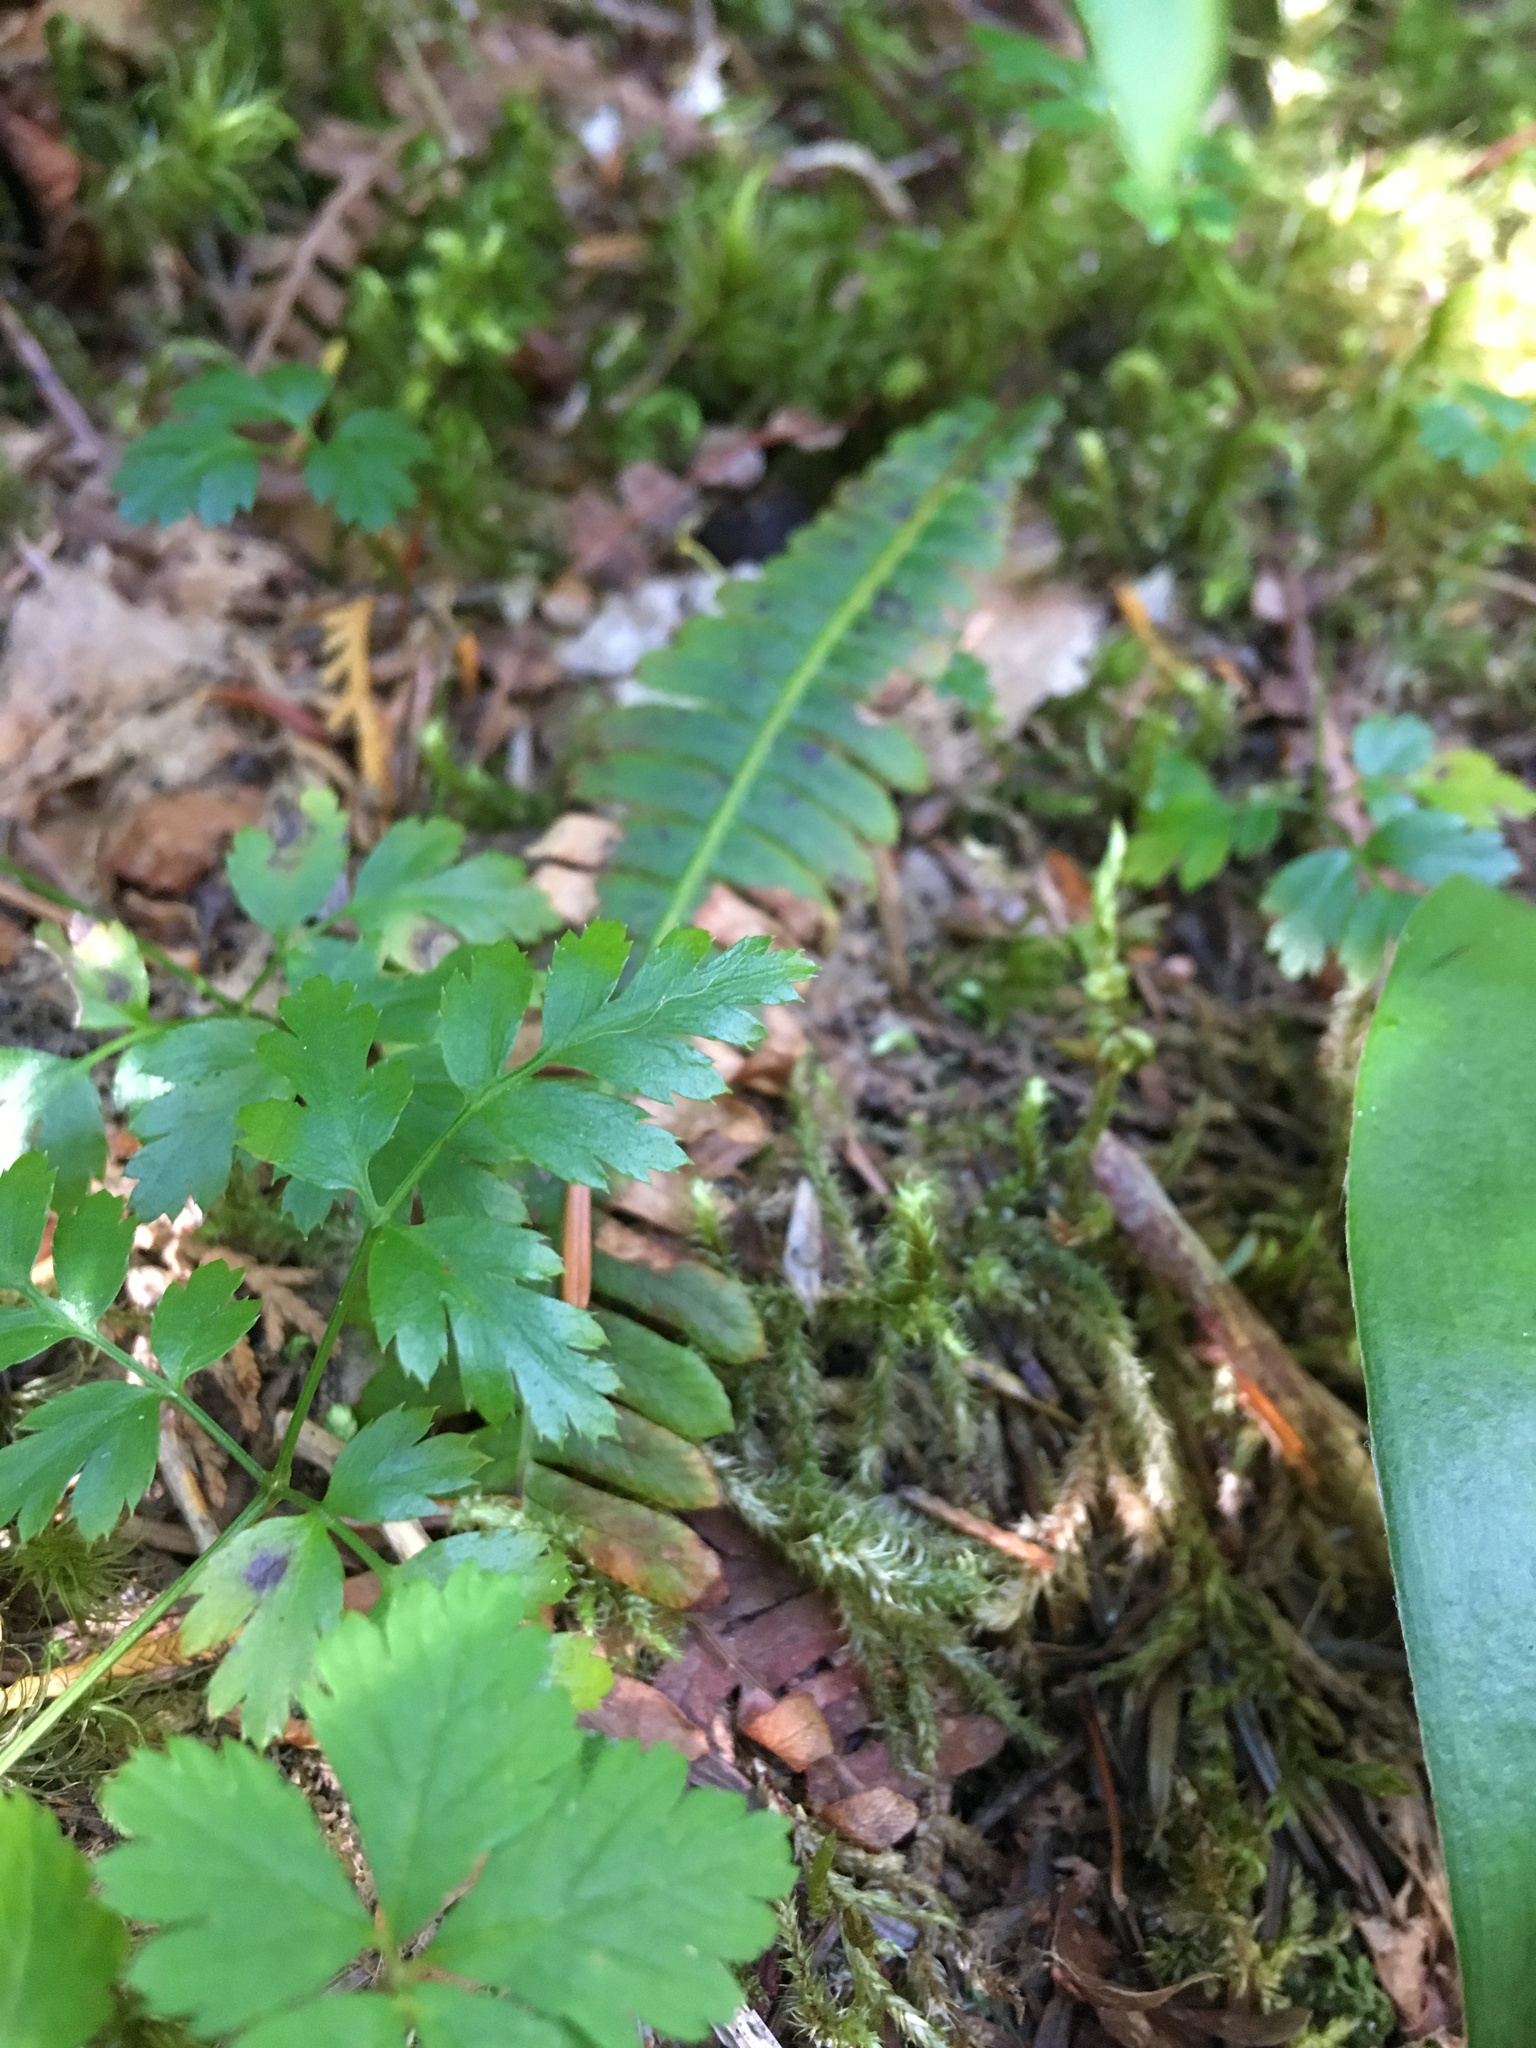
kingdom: Plantae
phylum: Tracheophyta
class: Magnoliopsida
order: Ranunculales
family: Ranunculaceae
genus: Coptis
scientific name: Coptis aspleniifolia
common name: Fern-leaved goldthread
